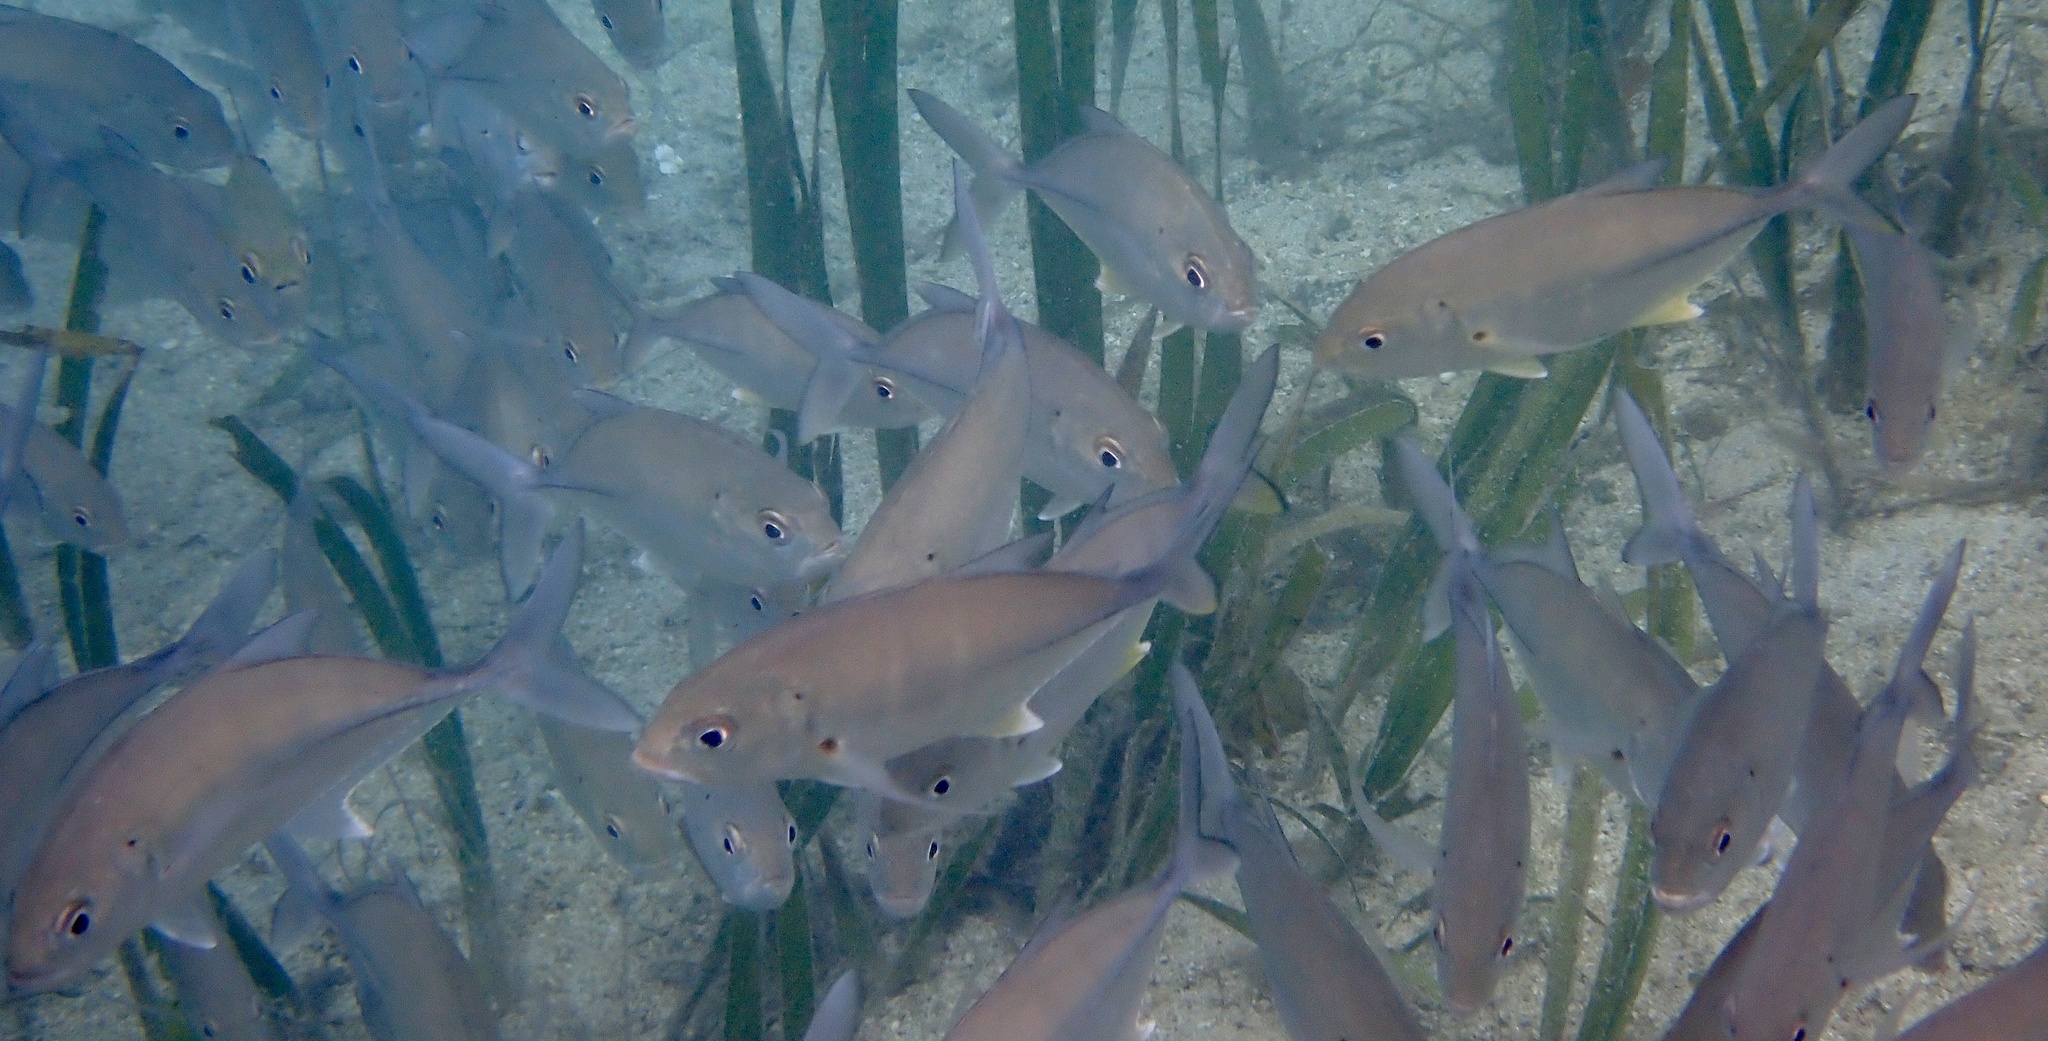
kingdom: Animalia
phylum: Chordata
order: Perciformes
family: Carangidae
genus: Caranx
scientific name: Caranx sexfasciatus
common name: Bigeye trevally
